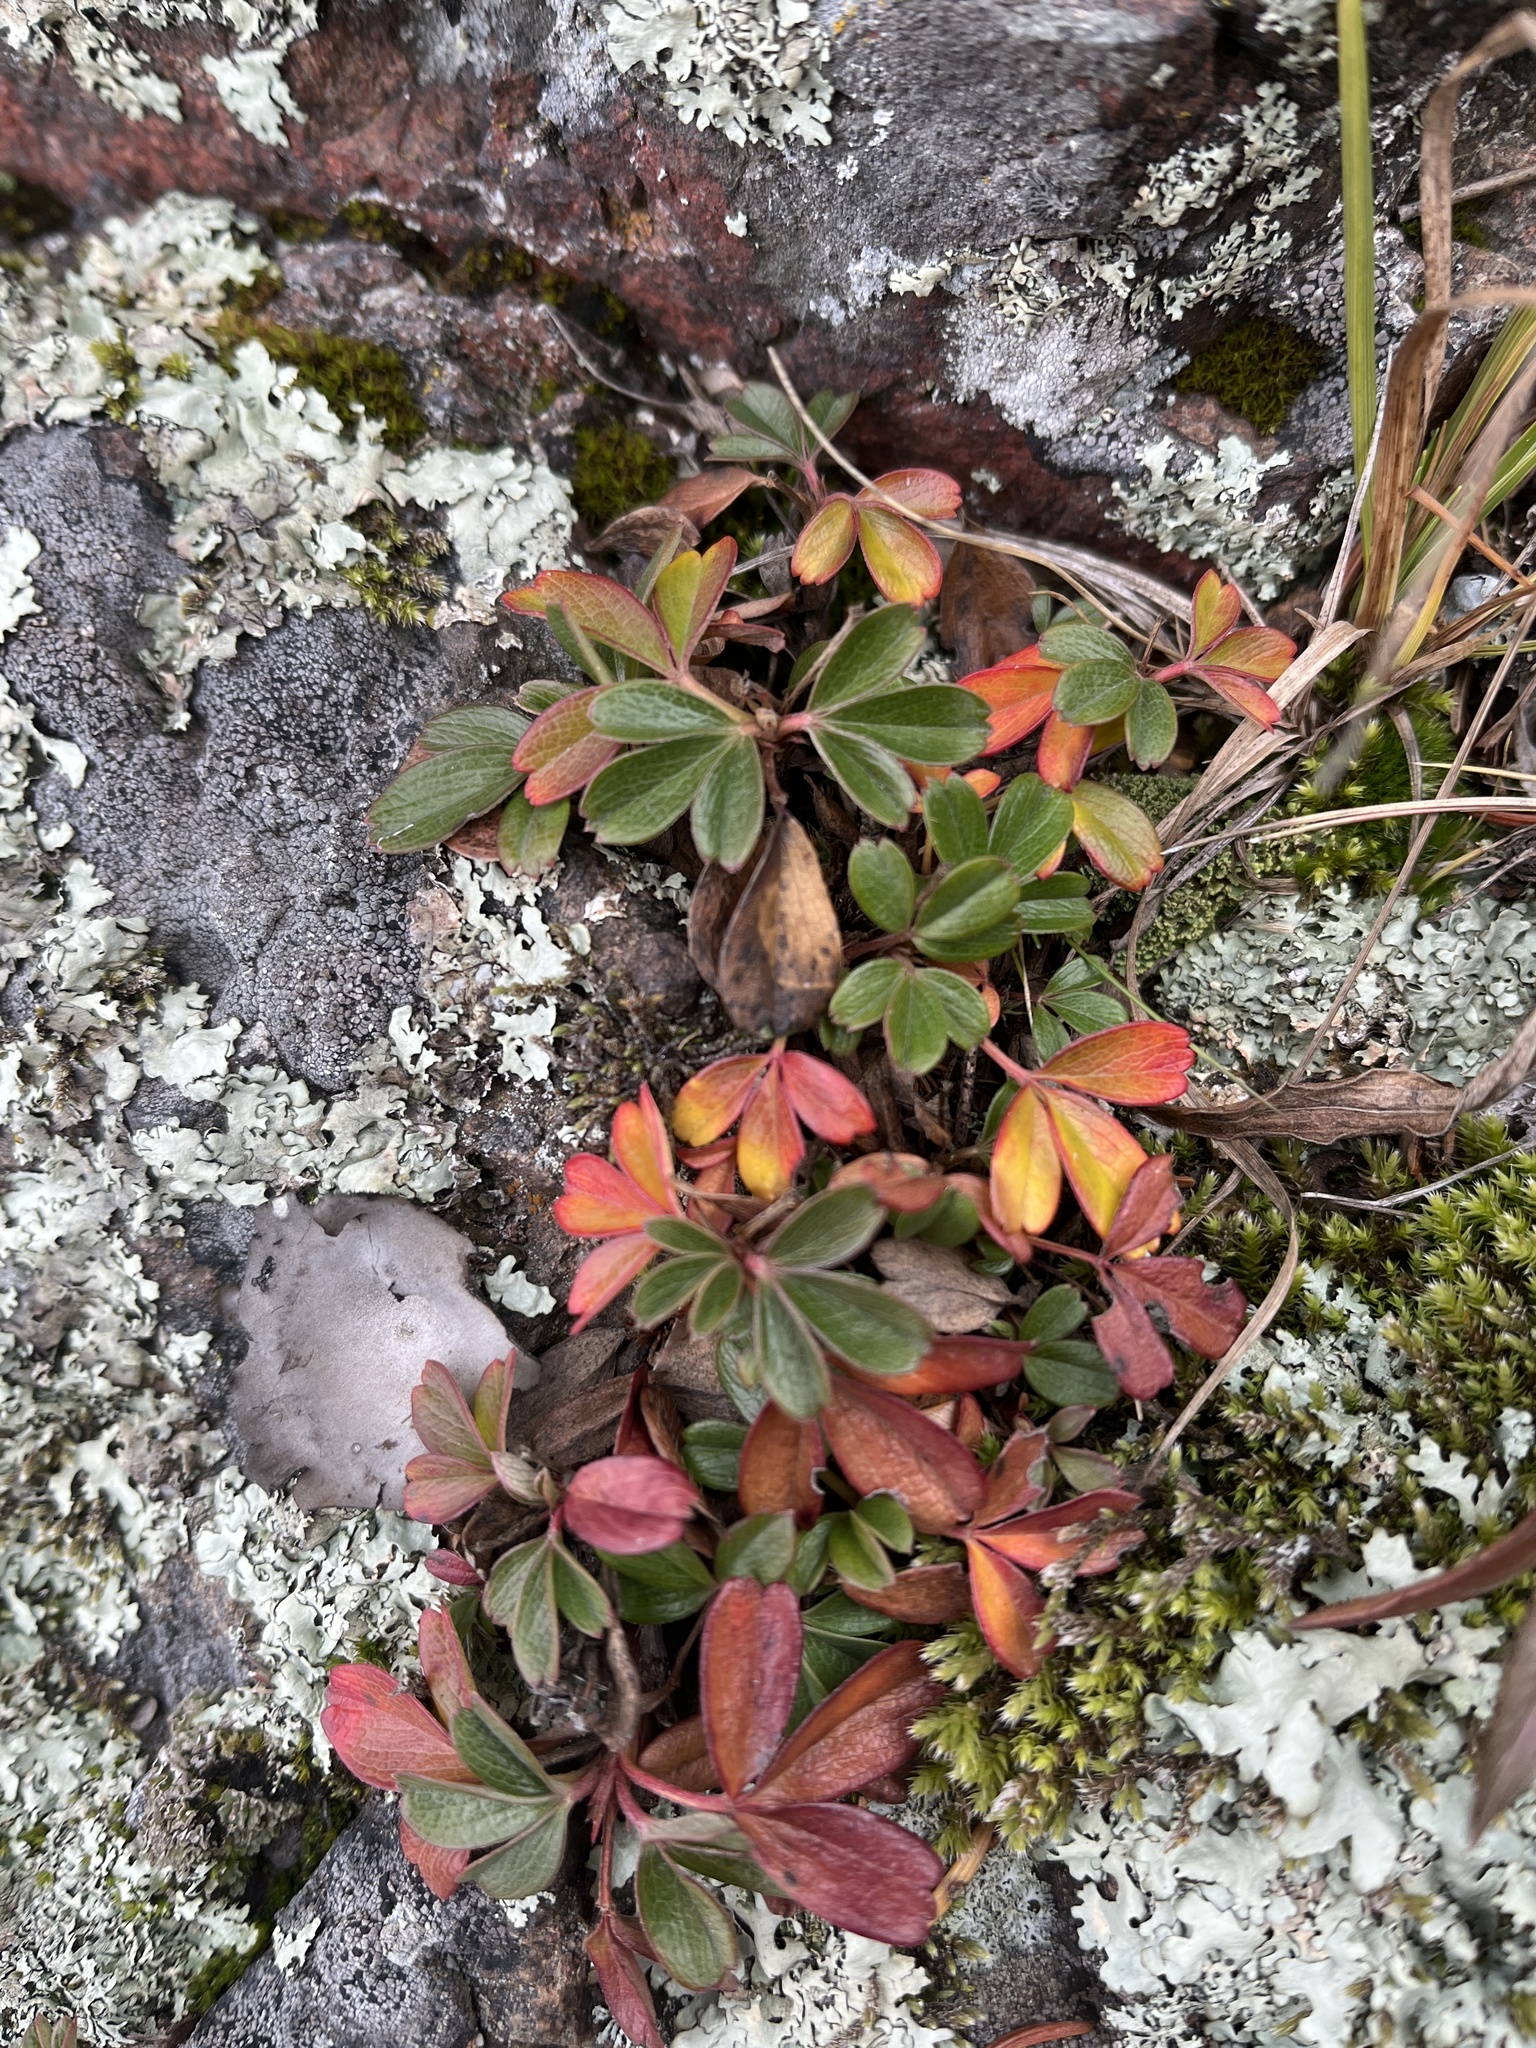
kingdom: Plantae
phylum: Tracheophyta
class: Magnoliopsida
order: Rosales
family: Rosaceae
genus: Sibbaldia
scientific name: Sibbaldia tridentata
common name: Three-toothed cinquefoil
